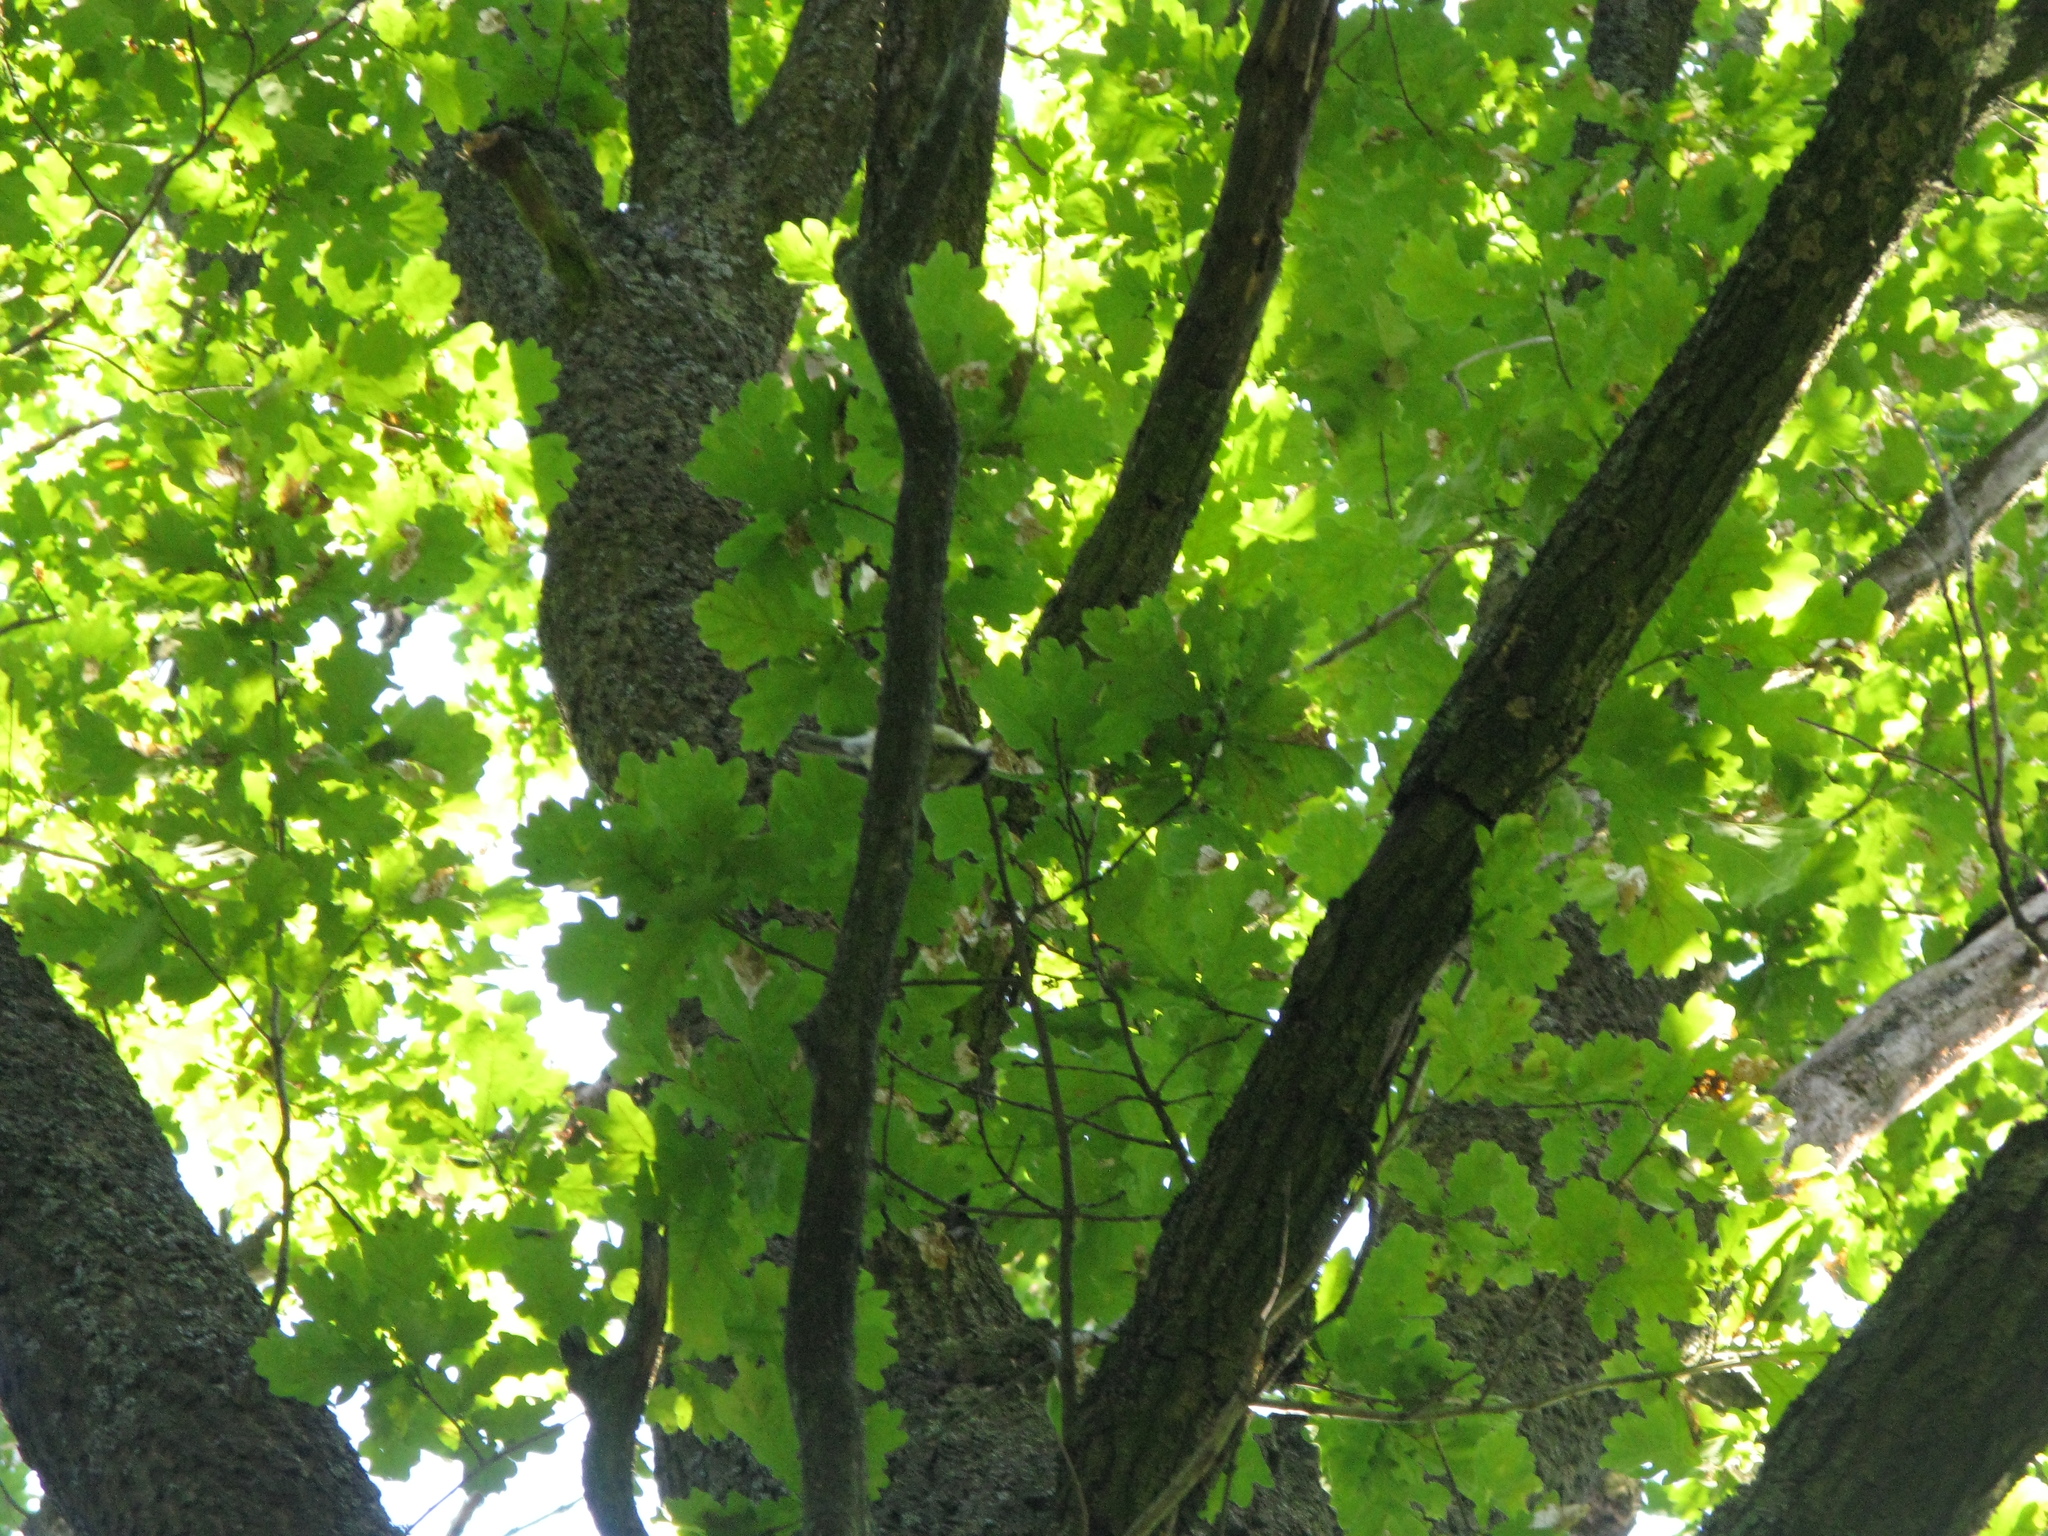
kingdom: Animalia
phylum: Chordata
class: Aves
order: Passeriformes
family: Paridae
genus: Parus
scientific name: Parus major
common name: Great tit
